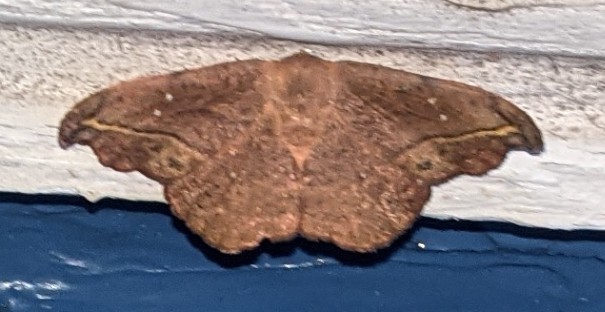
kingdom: Animalia
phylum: Arthropoda
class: Insecta
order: Lepidoptera
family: Drepanidae
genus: Oreta
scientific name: Oreta rosea
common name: Rose hooktip
